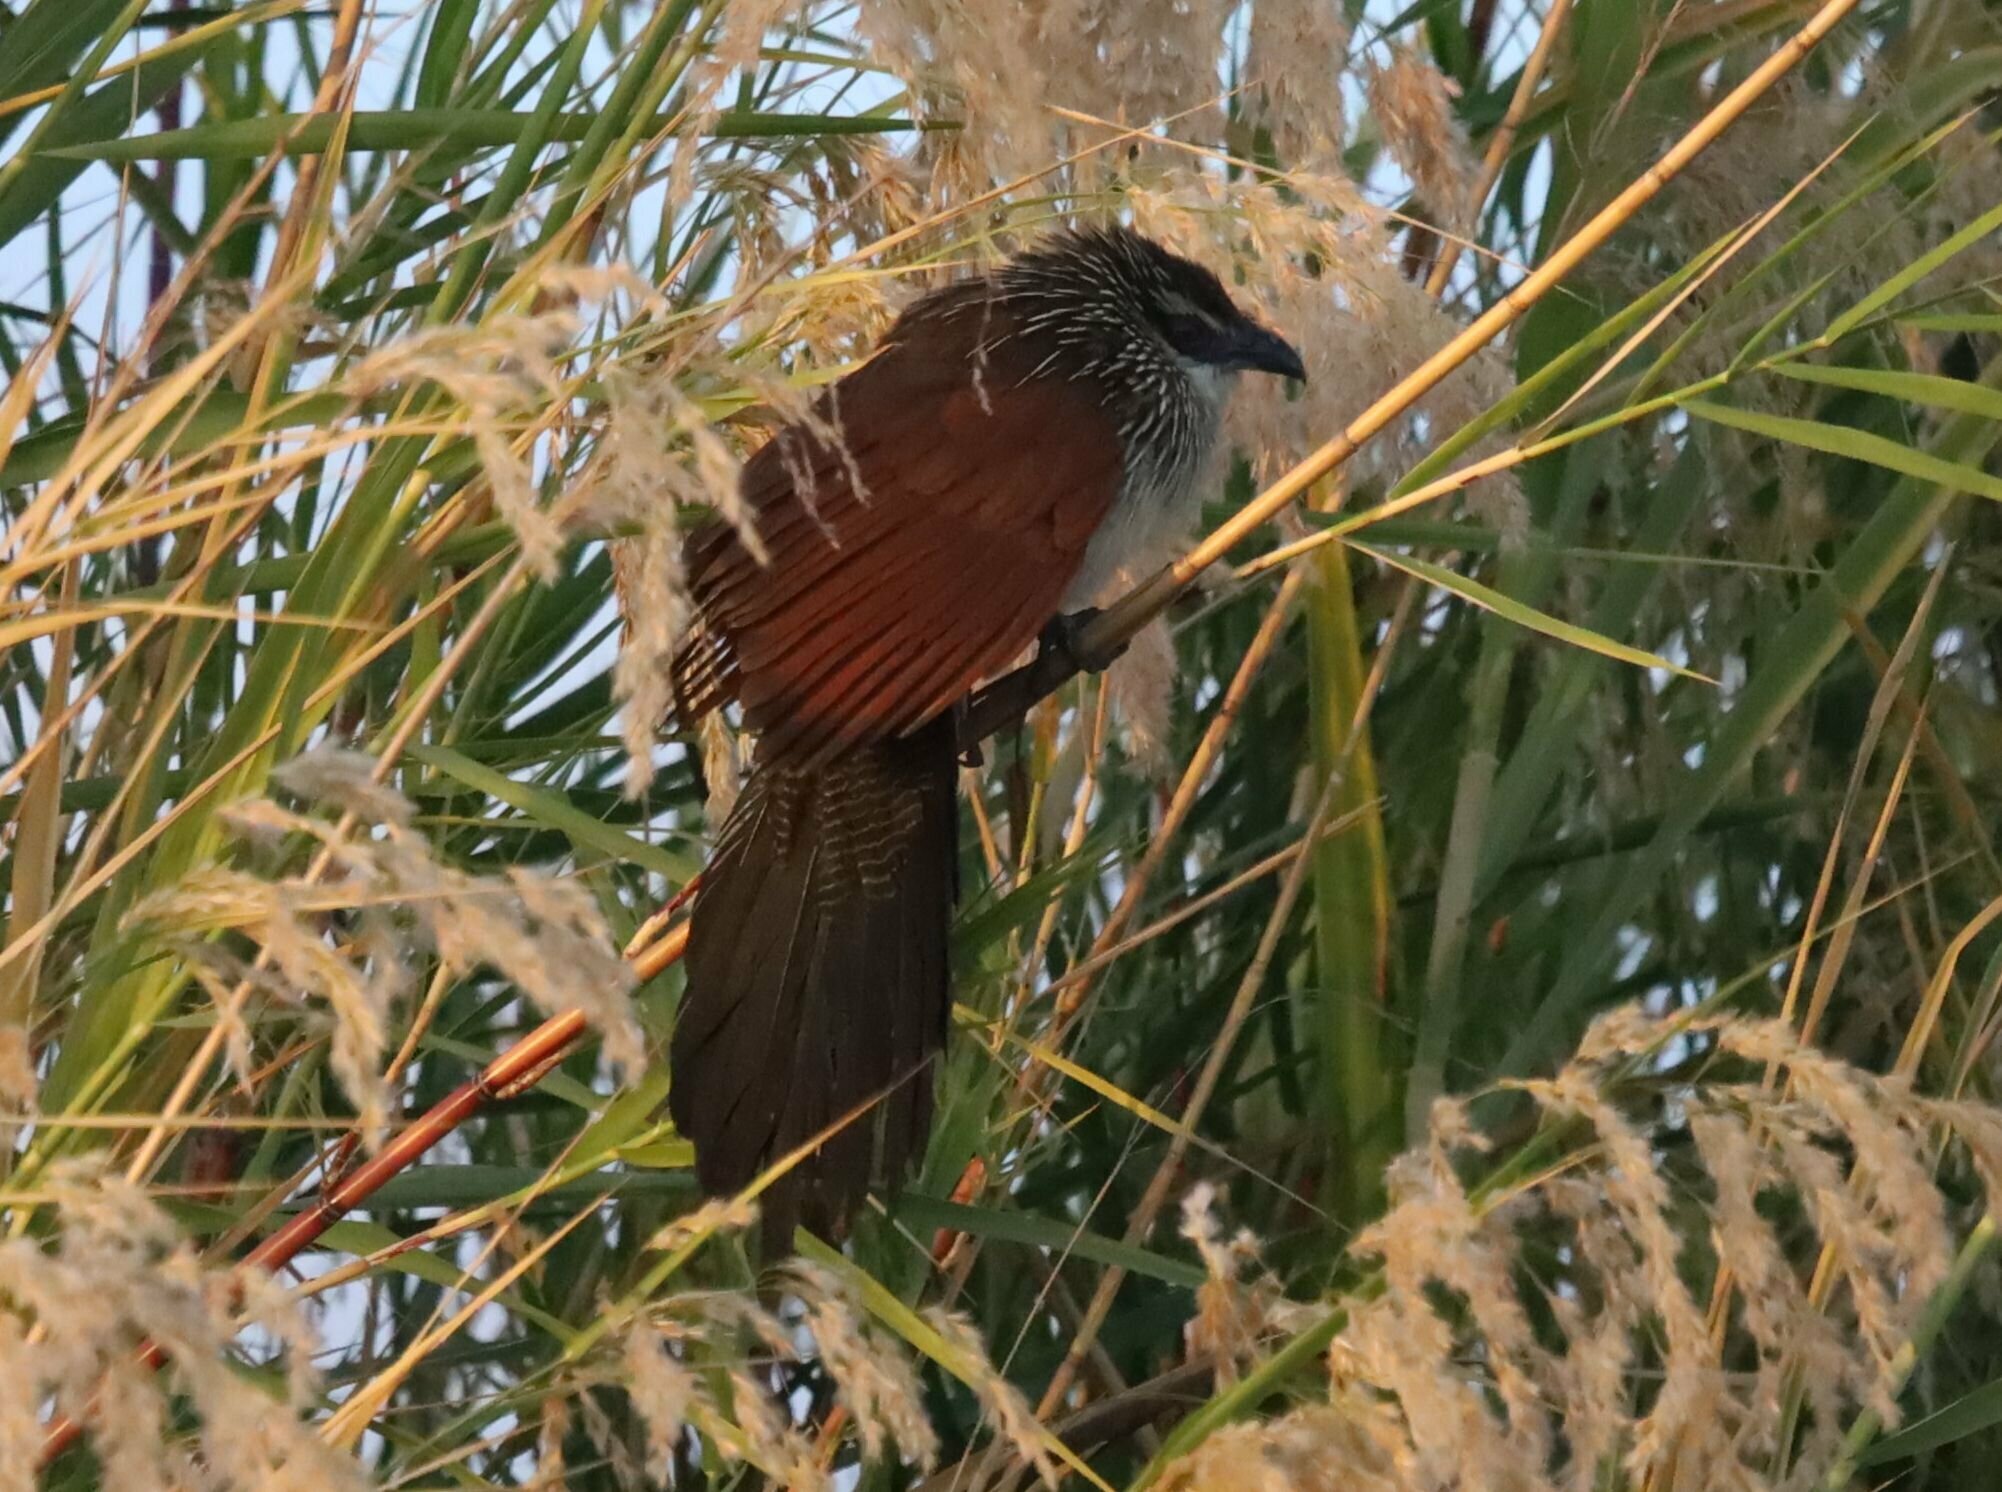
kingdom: Animalia
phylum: Chordata
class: Aves
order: Cuculiformes
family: Cuculidae
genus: Centropus
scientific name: Centropus superciliosus
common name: White-browed coucal
